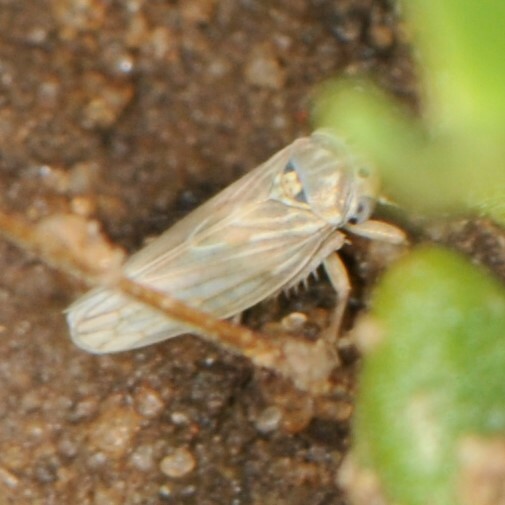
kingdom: Animalia
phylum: Arthropoda
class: Insecta
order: Hemiptera
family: Cicadellidae
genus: Ceratagallia
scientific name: Ceratagallia
